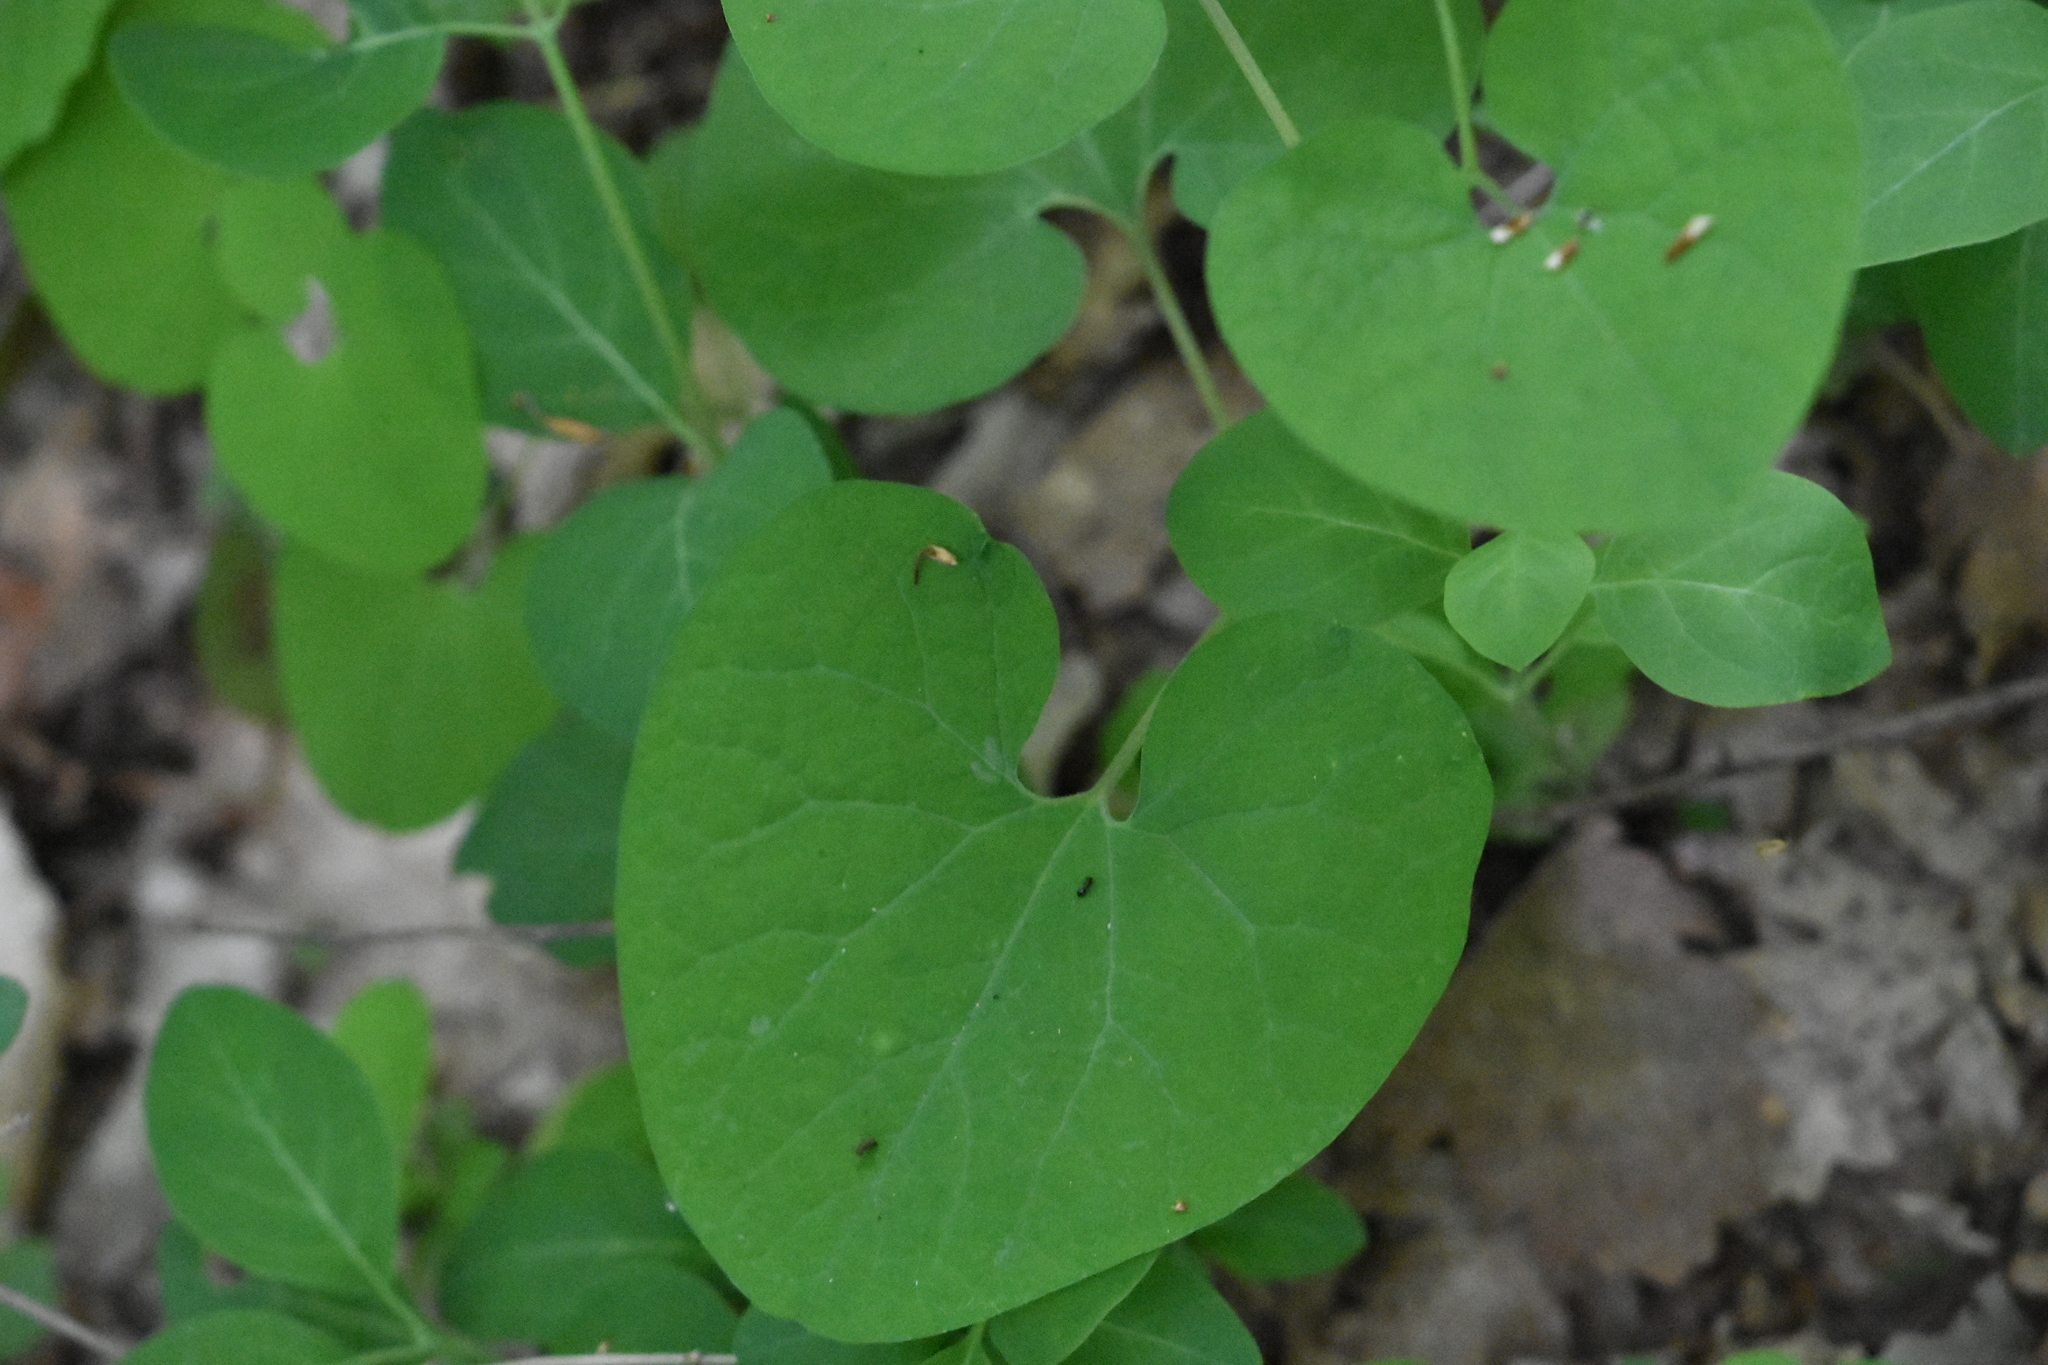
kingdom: Plantae
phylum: Tracheophyta
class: Magnoliopsida
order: Piperales
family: Aristolochiaceae
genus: Aristolochia
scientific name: Aristolochia steupii
